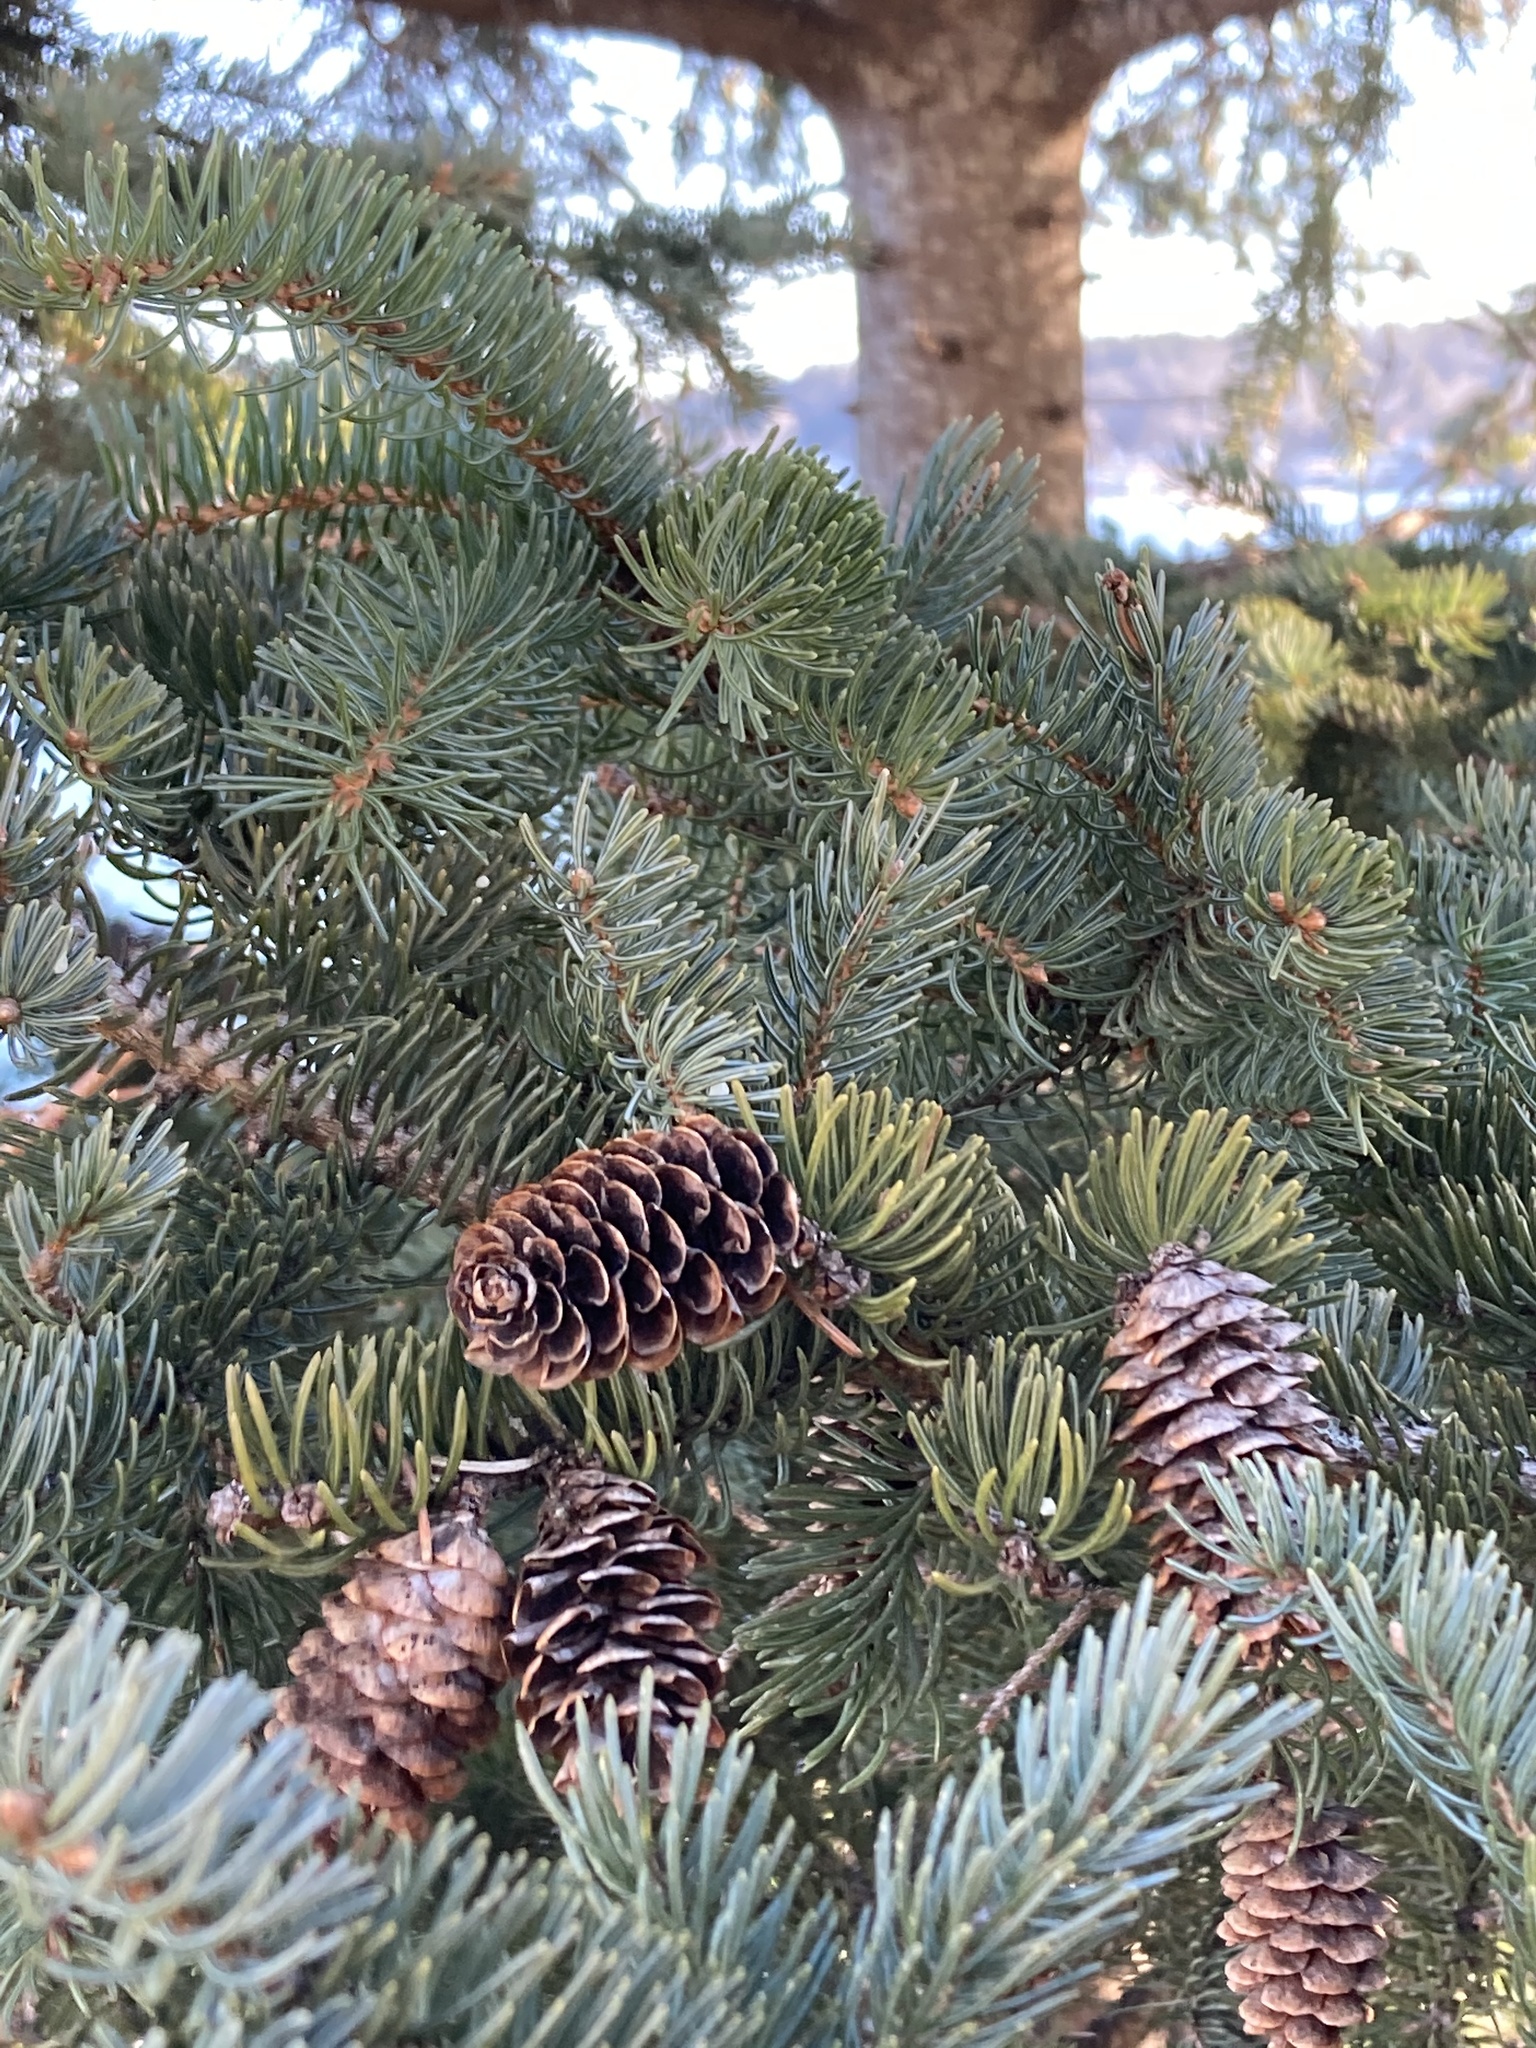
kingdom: Plantae
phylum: Tracheophyta
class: Pinopsida
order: Pinales
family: Pinaceae
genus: Picea
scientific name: Picea glauca
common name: White spruce
